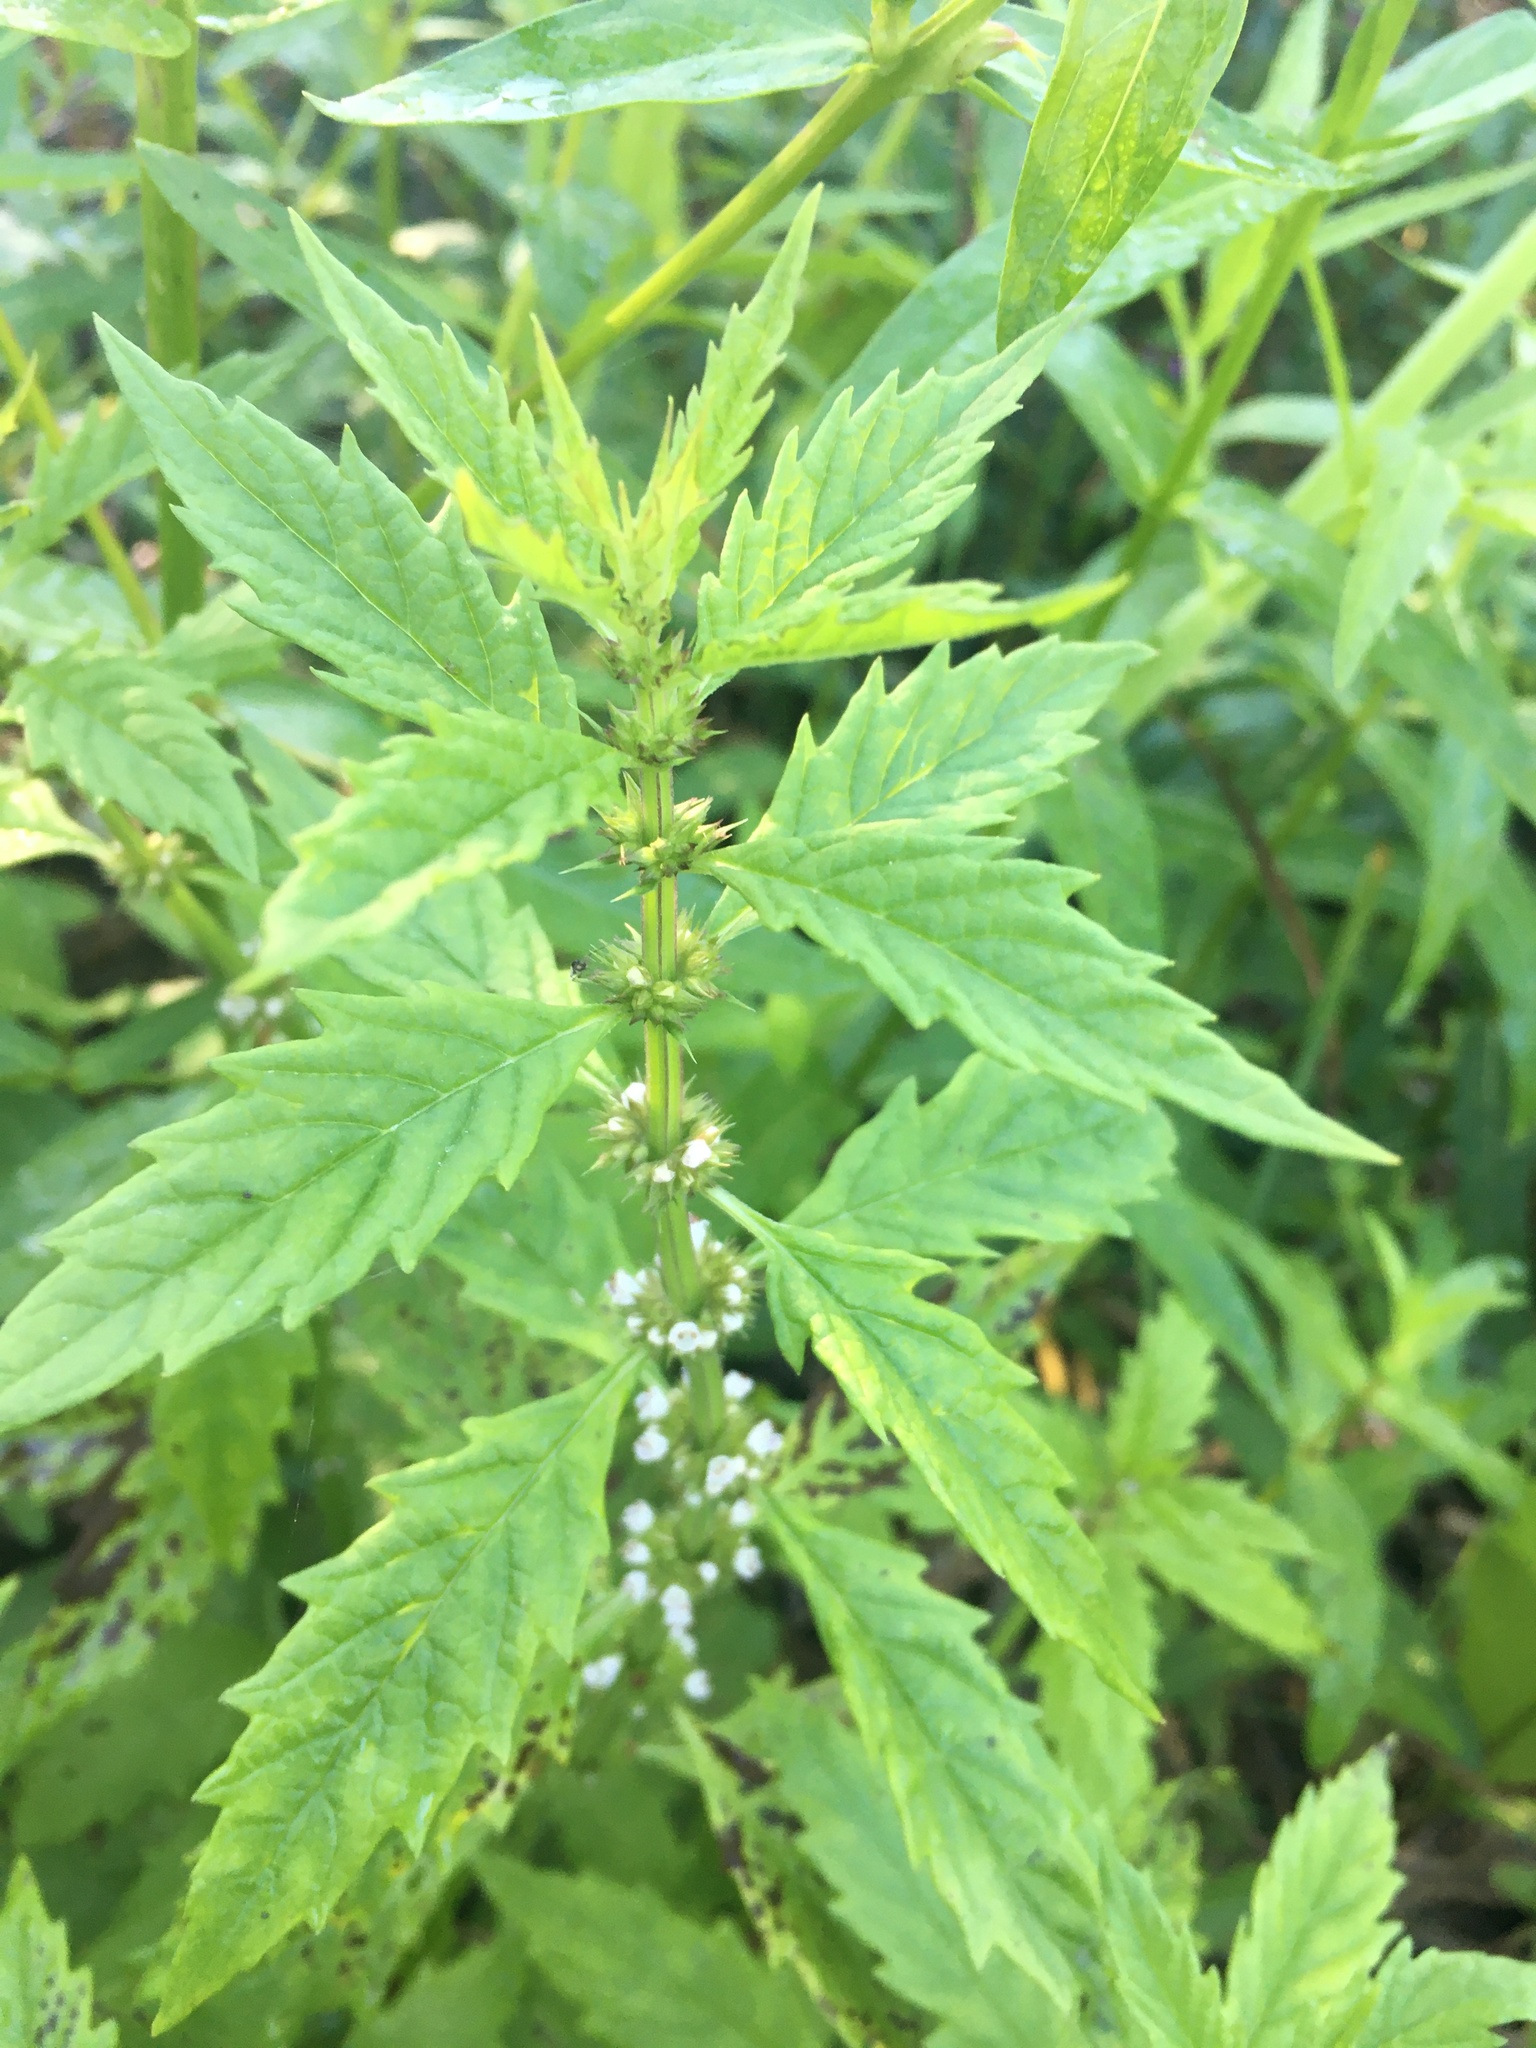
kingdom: Plantae
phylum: Tracheophyta
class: Magnoliopsida
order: Lamiales
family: Lamiaceae
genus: Lycopus
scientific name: Lycopus europaeus
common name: European bugleweed
